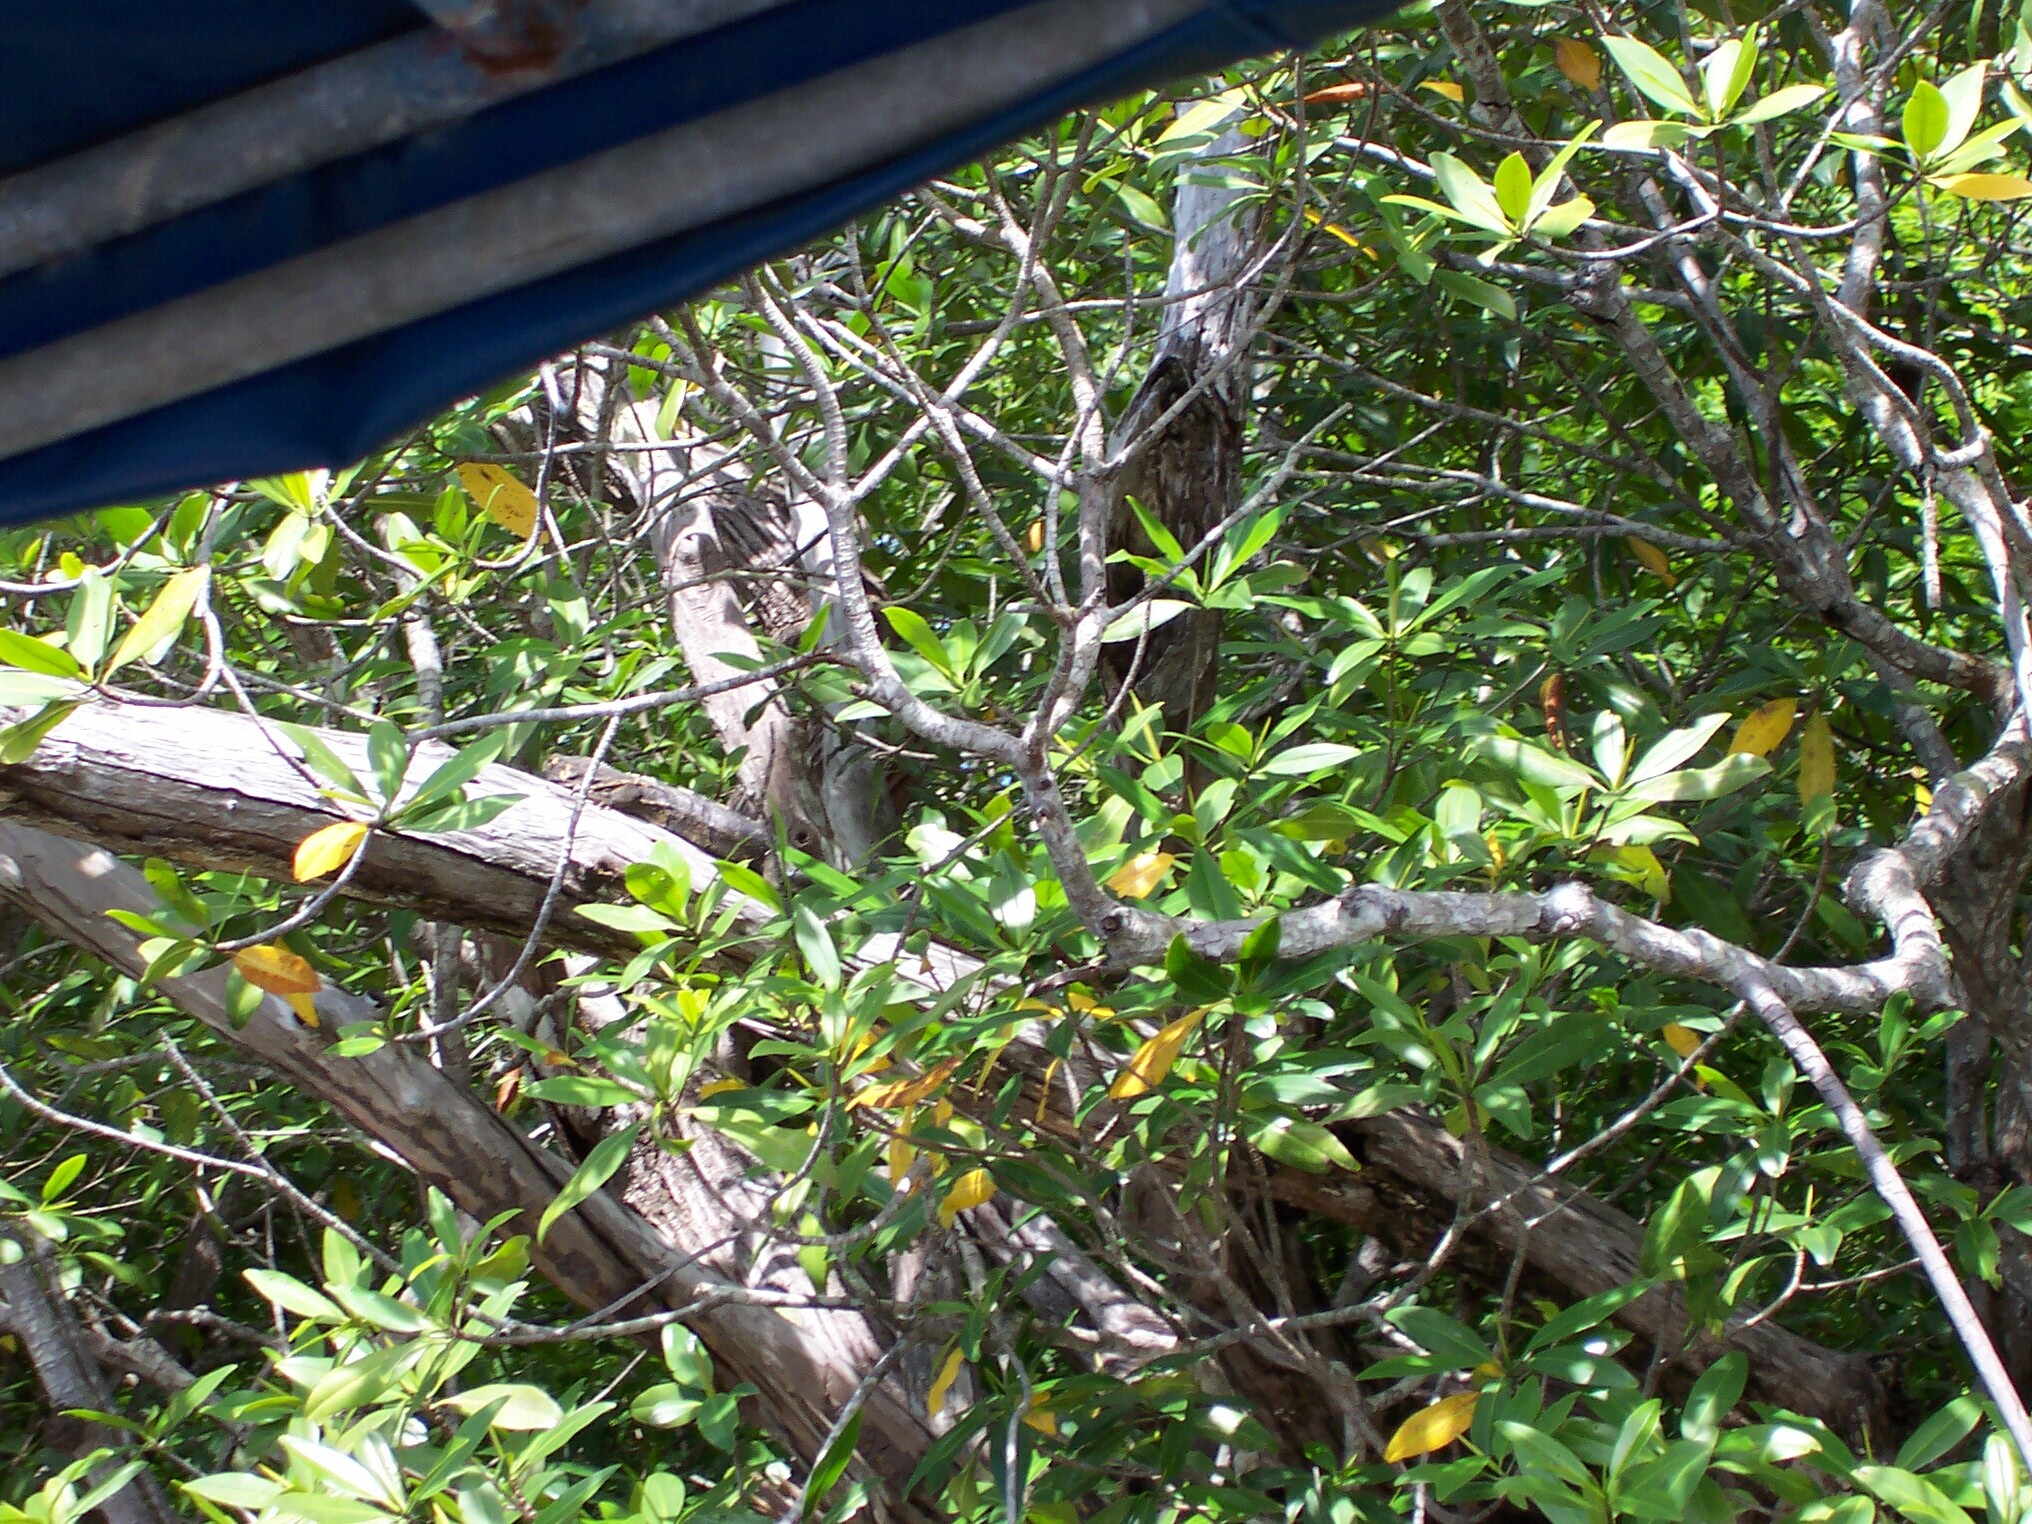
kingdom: Plantae
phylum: Tracheophyta
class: Magnoliopsida
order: Malpighiales
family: Rhizophoraceae
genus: Rhizophora
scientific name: Rhizophora mangle
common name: Red mangrove
